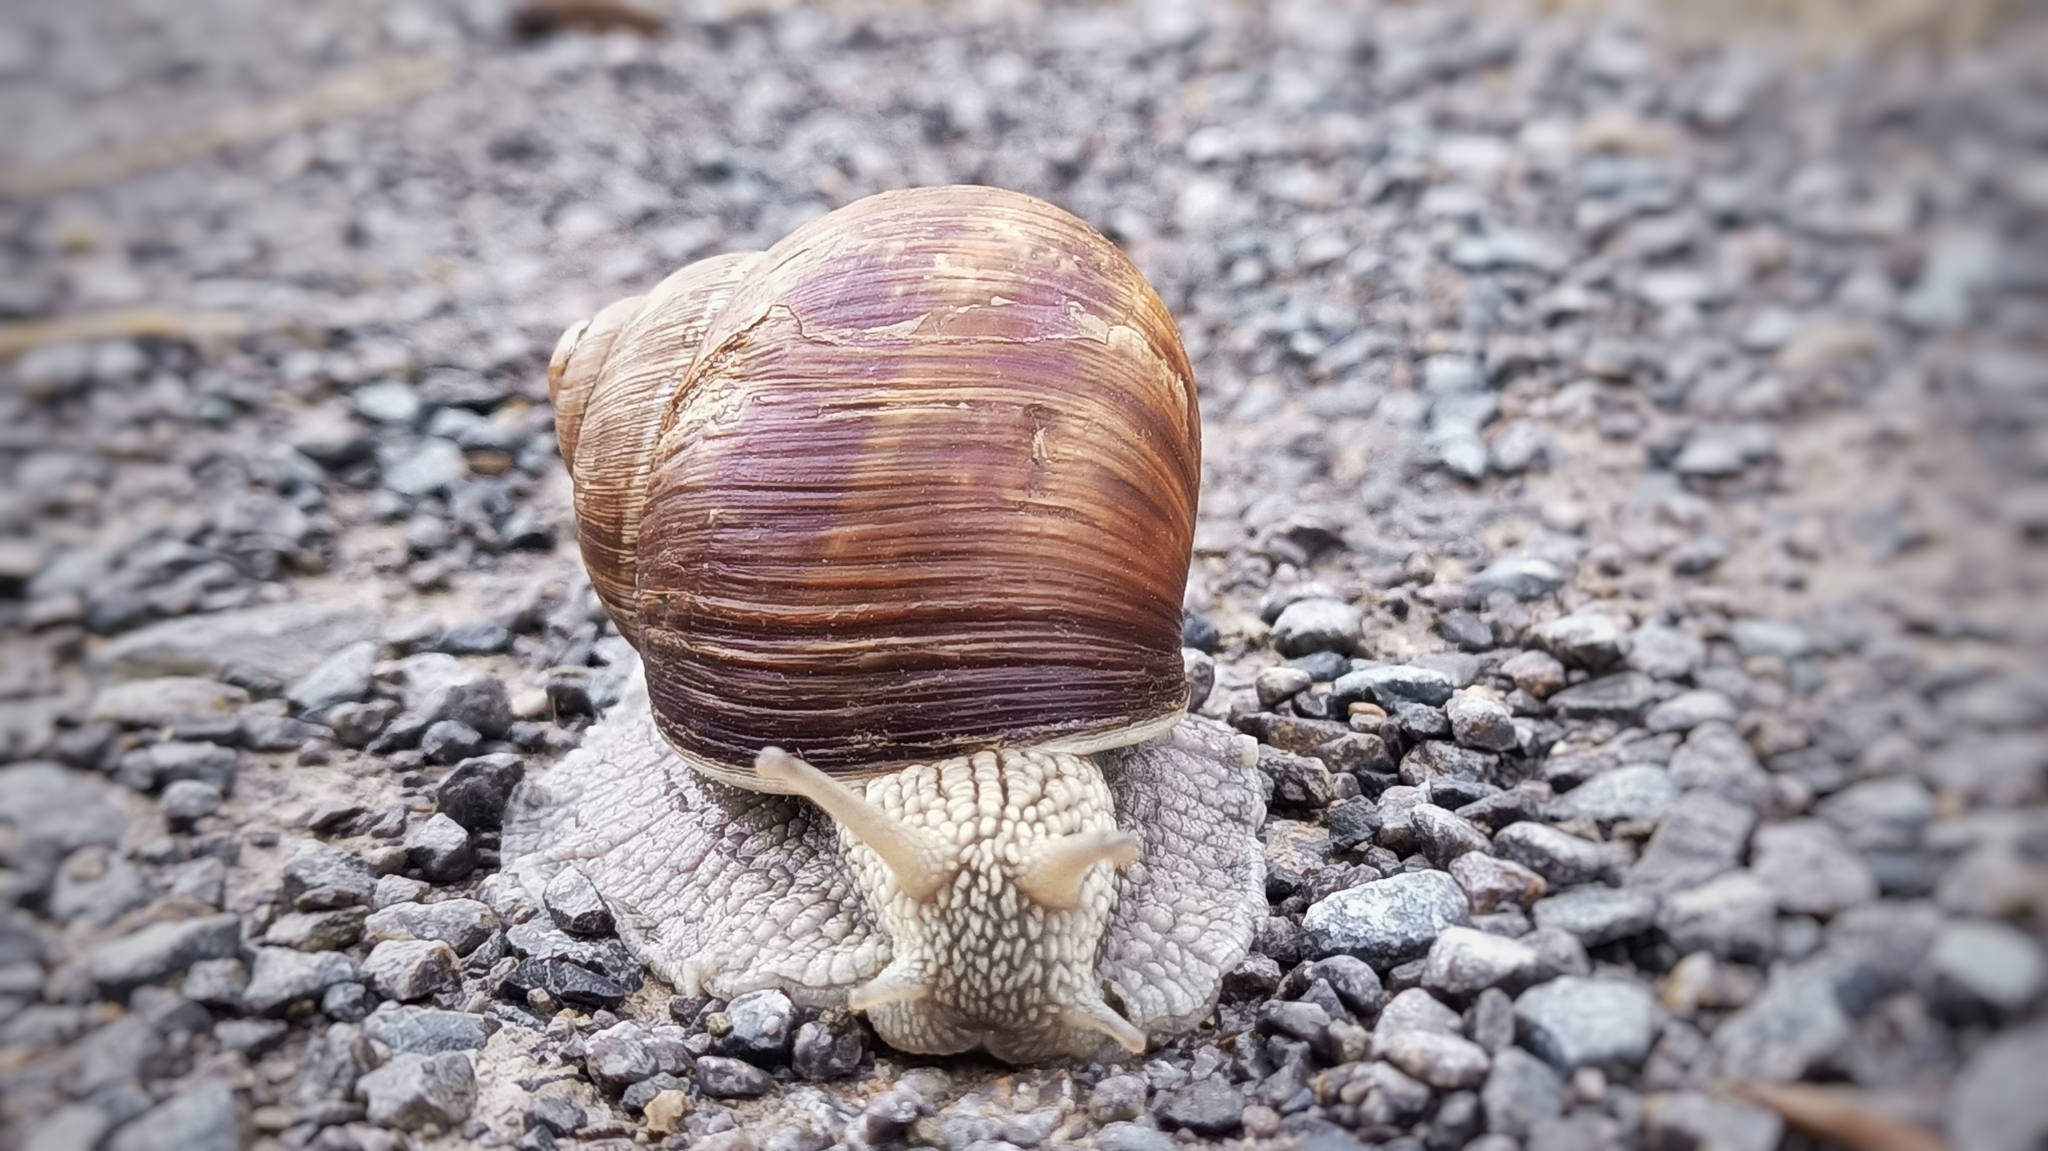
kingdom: Animalia
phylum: Mollusca
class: Gastropoda
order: Stylommatophora
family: Helicidae
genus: Helix
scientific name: Helix pomatia
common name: Roman snail
